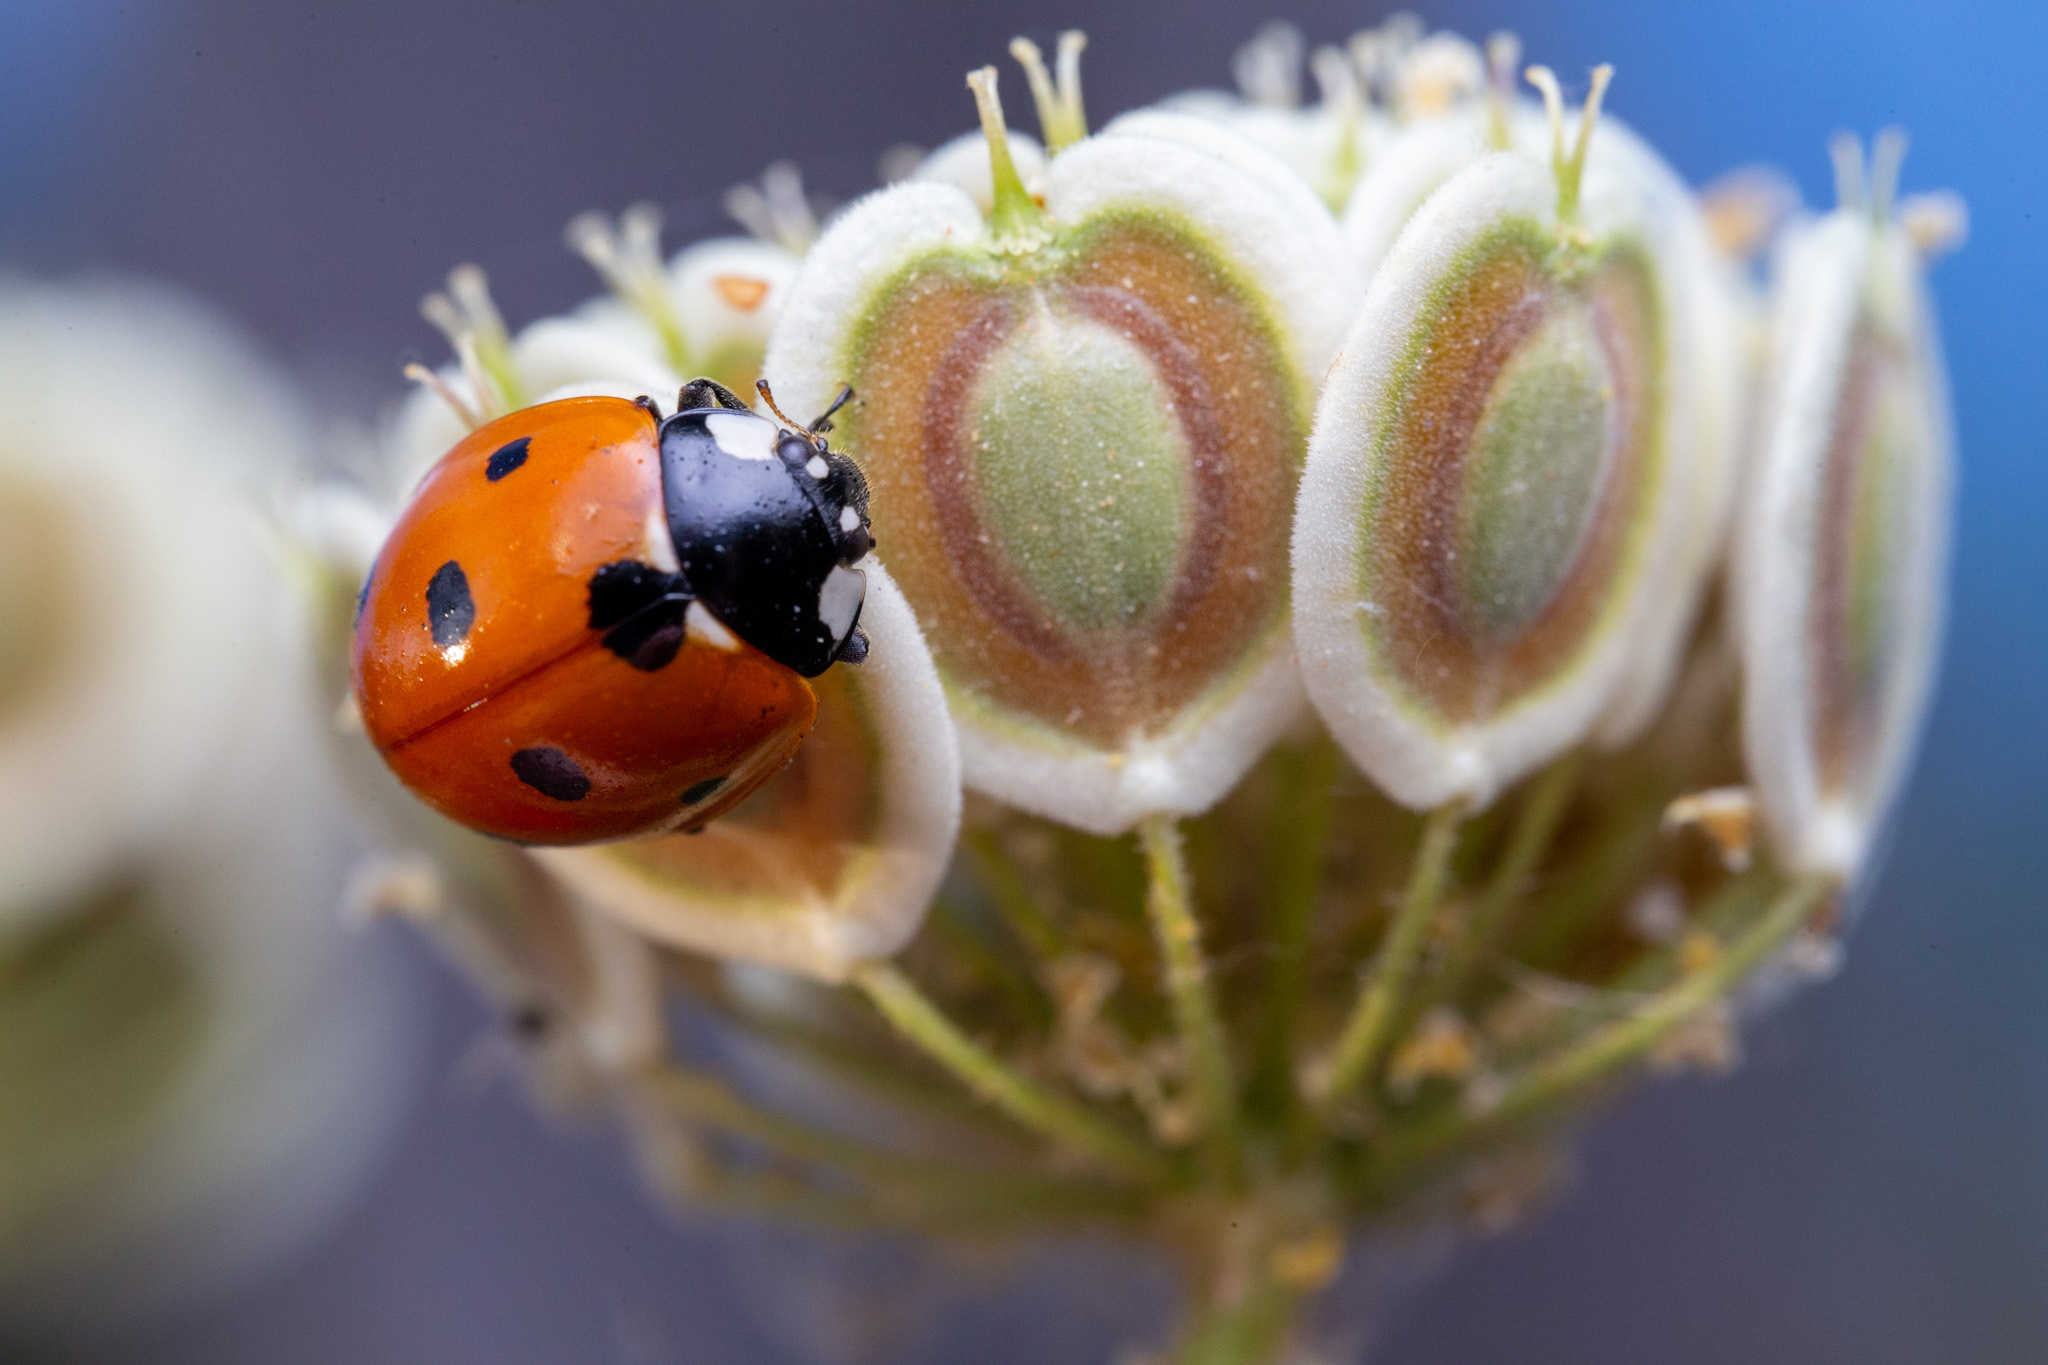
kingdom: Animalia
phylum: Arthropoda
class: Insecta
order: Coleoptera
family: Coccinellidae
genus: Coccinella
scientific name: Coccinella septempunctata
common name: Sevenspotted lady beetle
